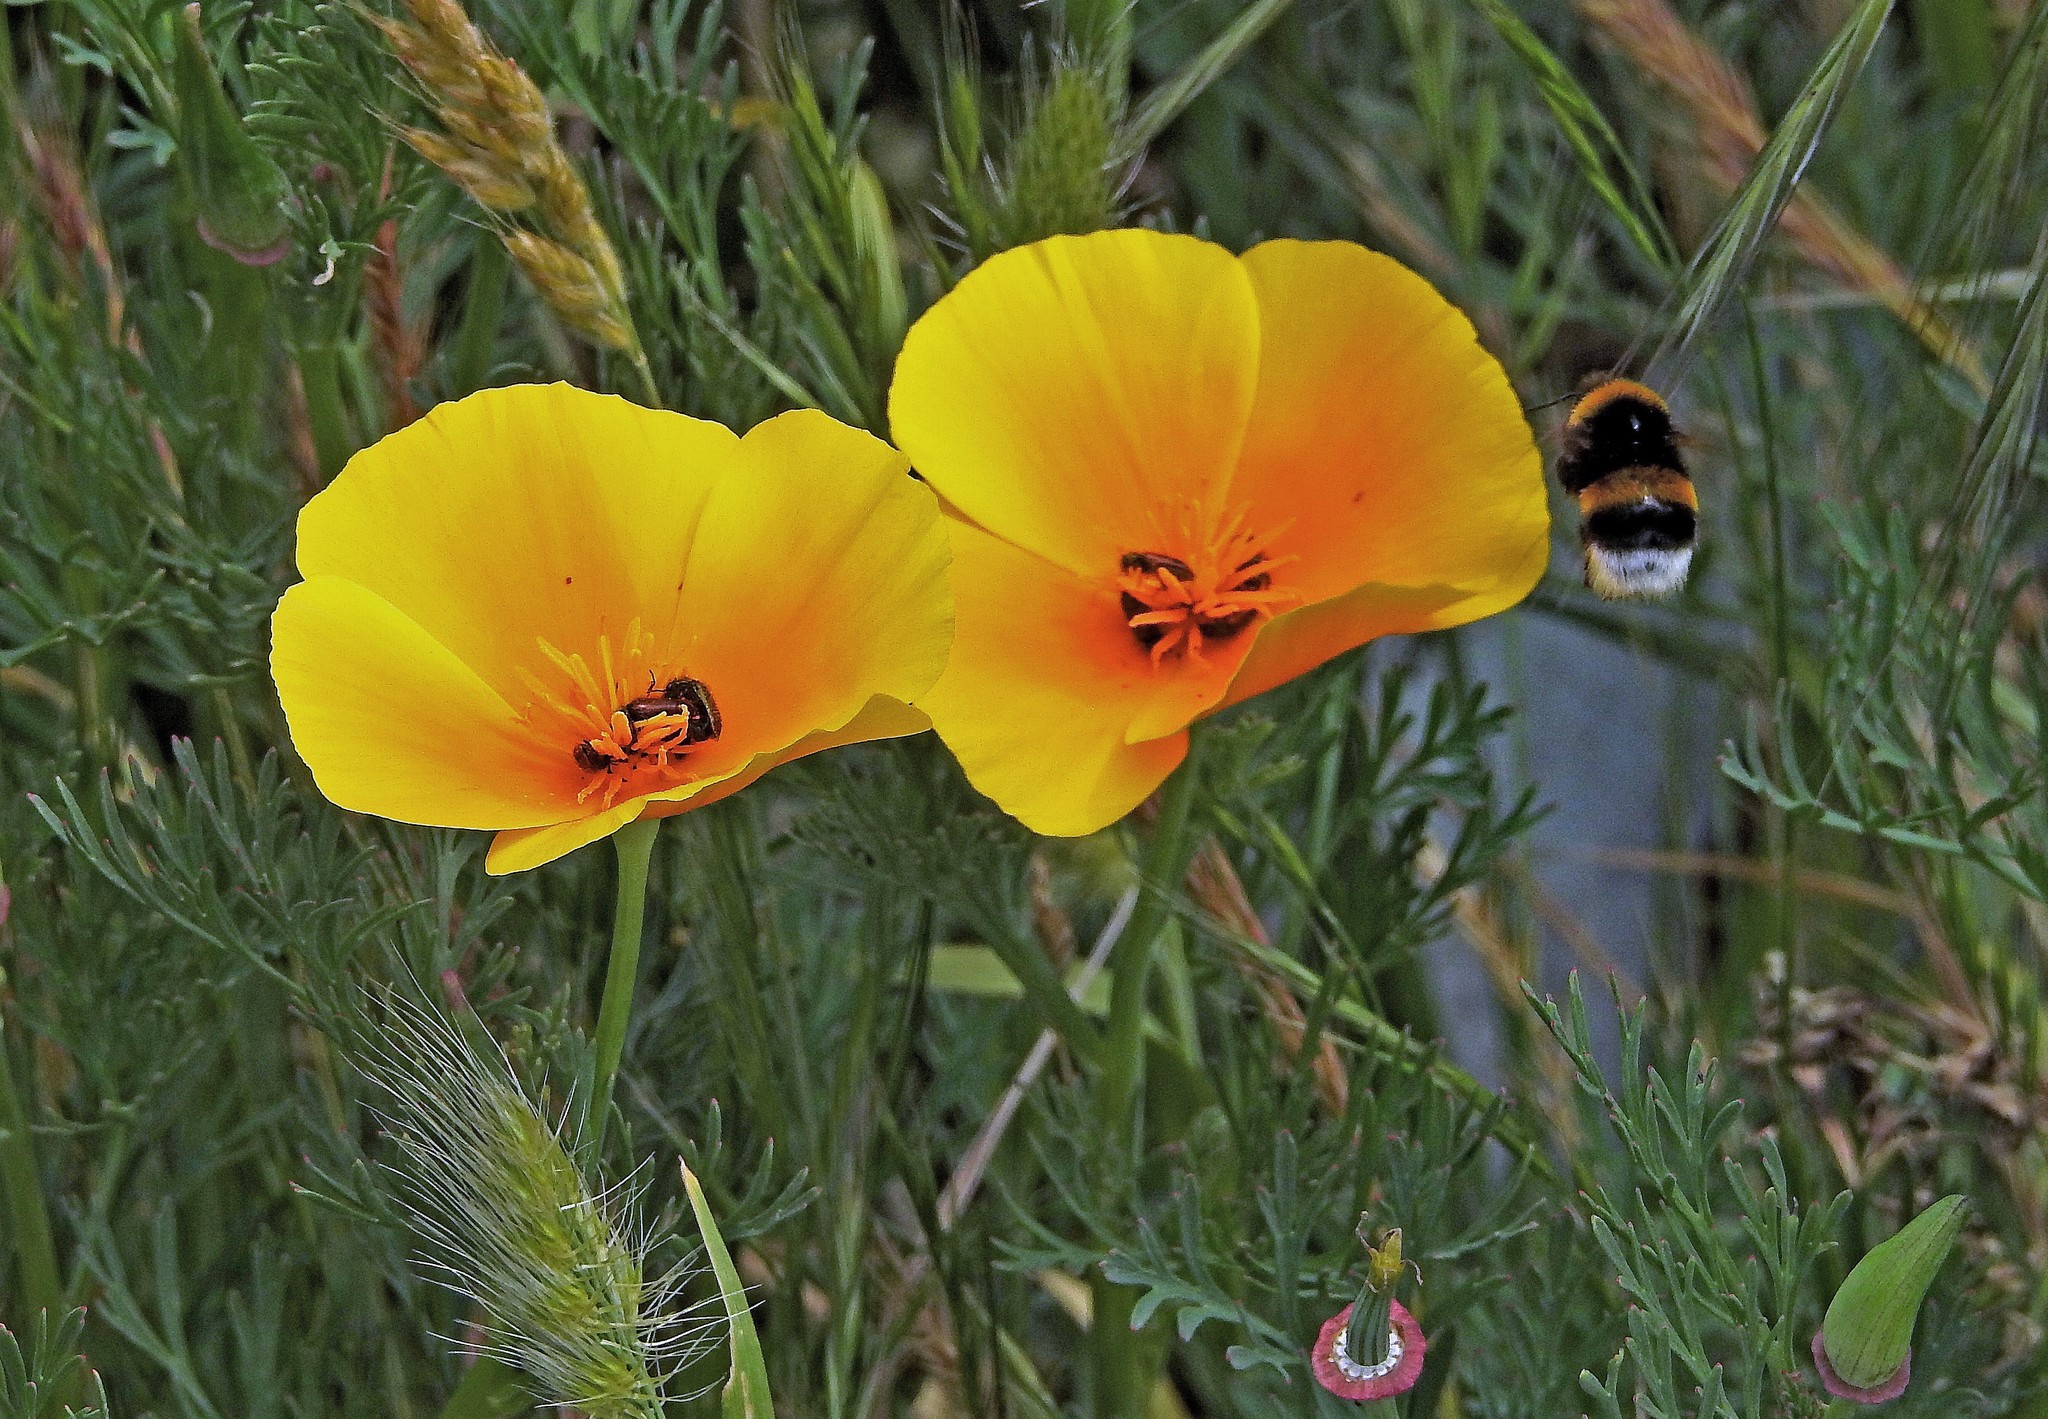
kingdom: Plantae
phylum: Tracheophyta
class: Magnoliopsida
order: Ranunculales
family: Papaveraceae
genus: Eschscholzia
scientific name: Eschscholzia californica
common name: California poppy
